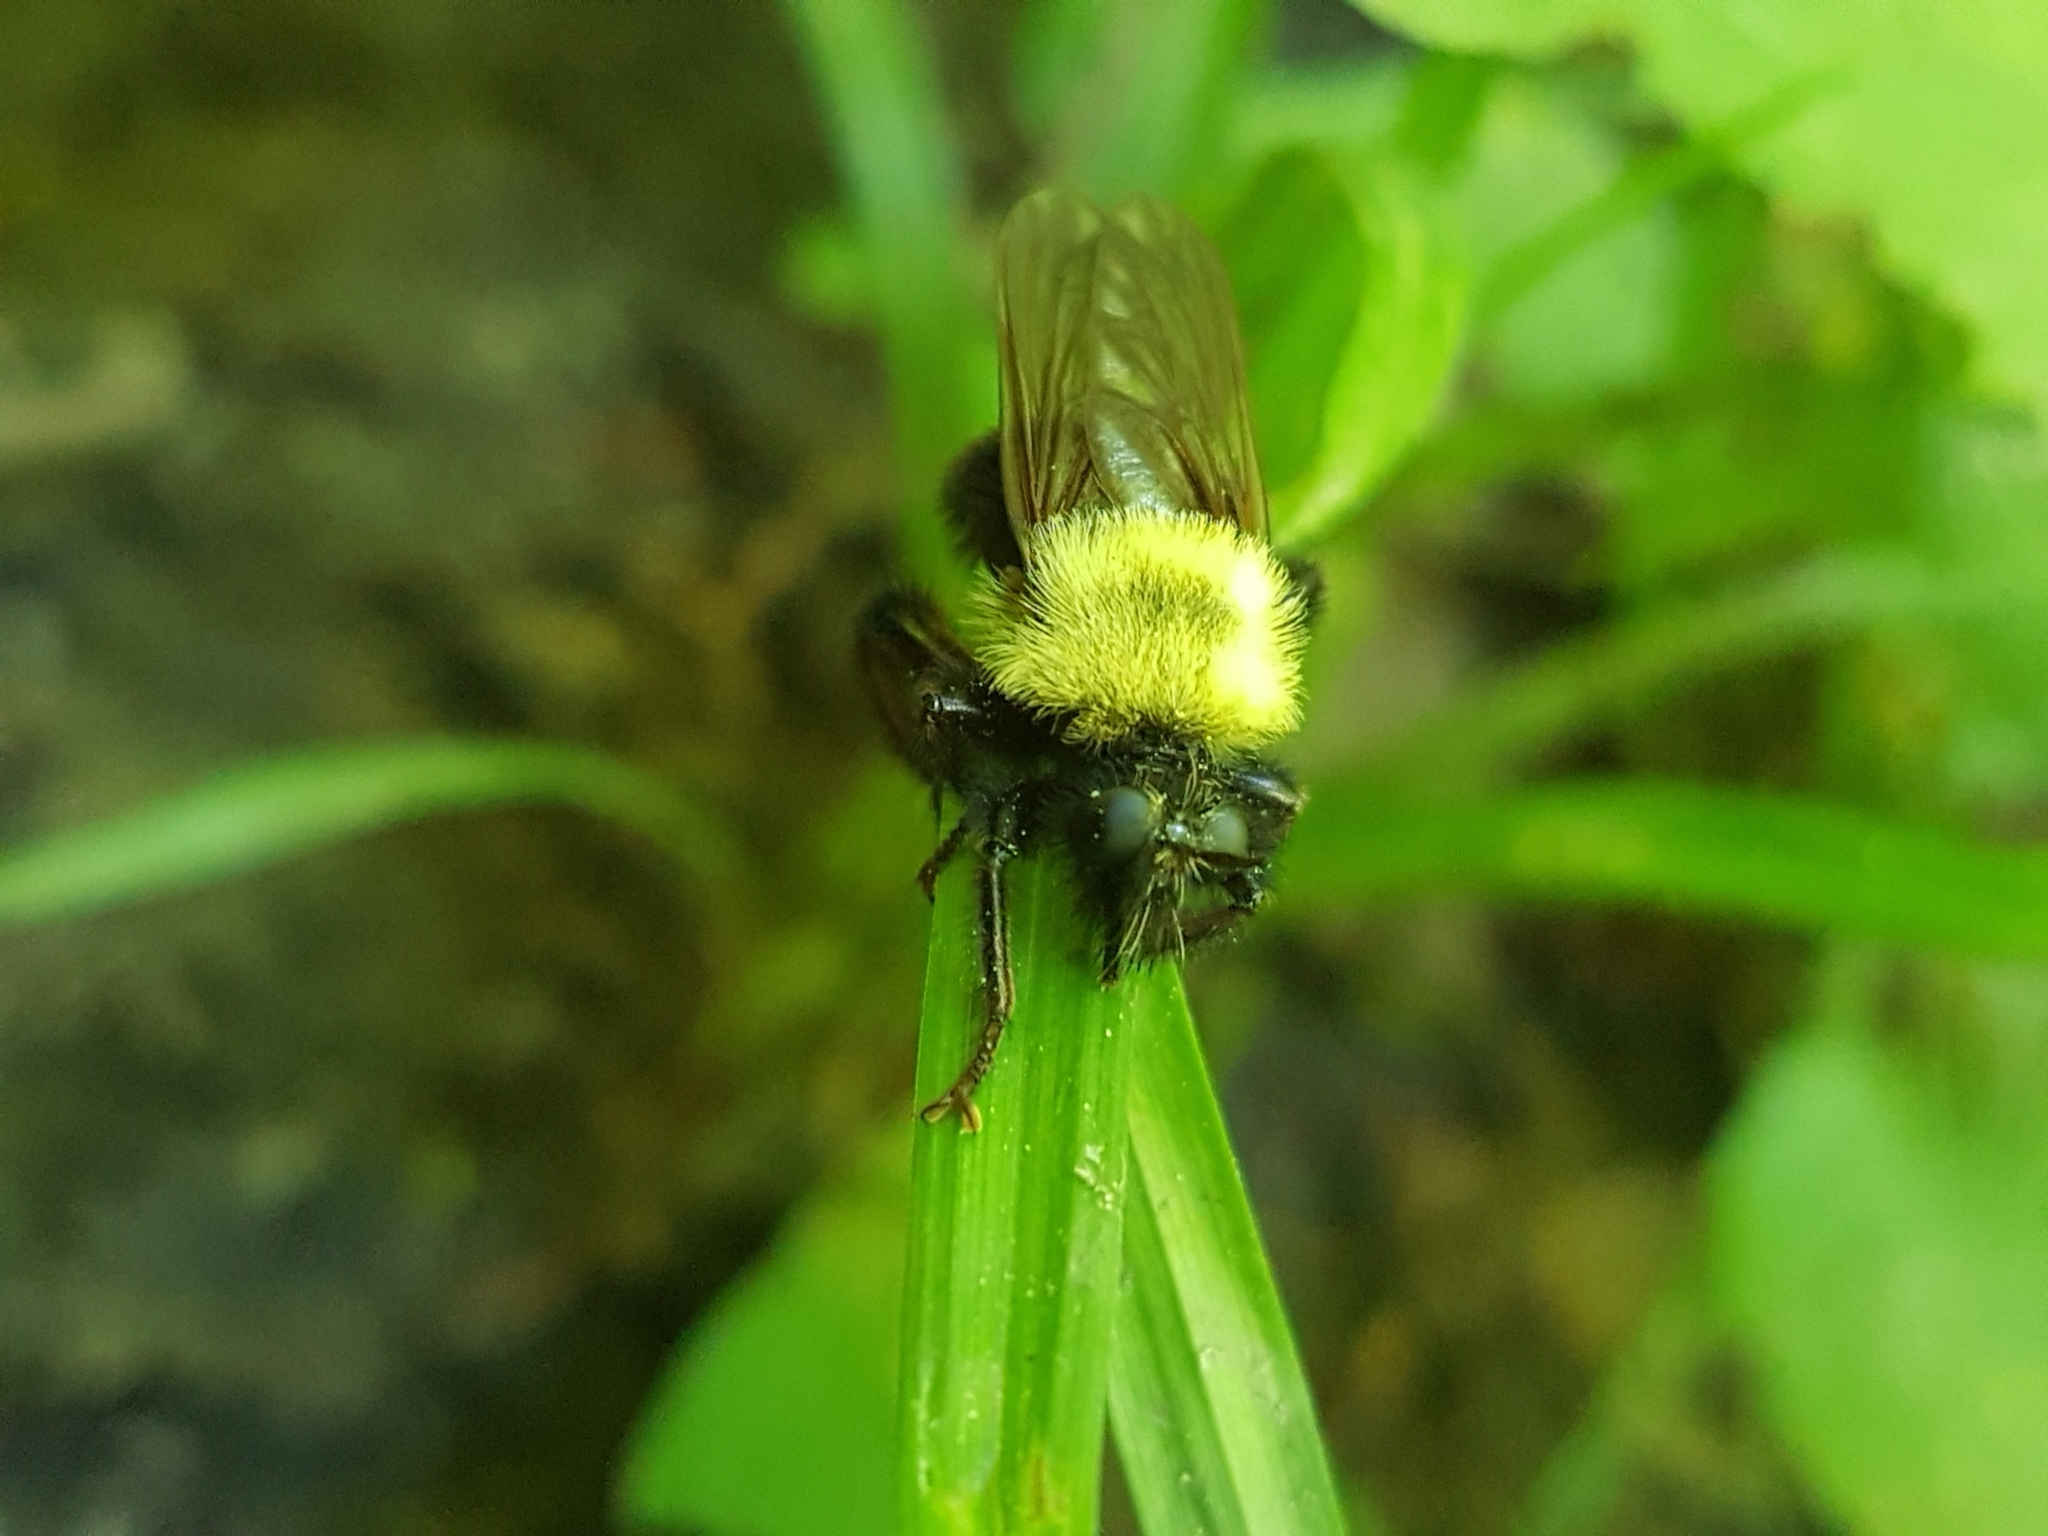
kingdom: Animalia
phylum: Arthropoda
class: Insecta
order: Diptera
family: Asilidae
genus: Laphria
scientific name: Laphria thoracica
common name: Bumble bee mimic robber fly
